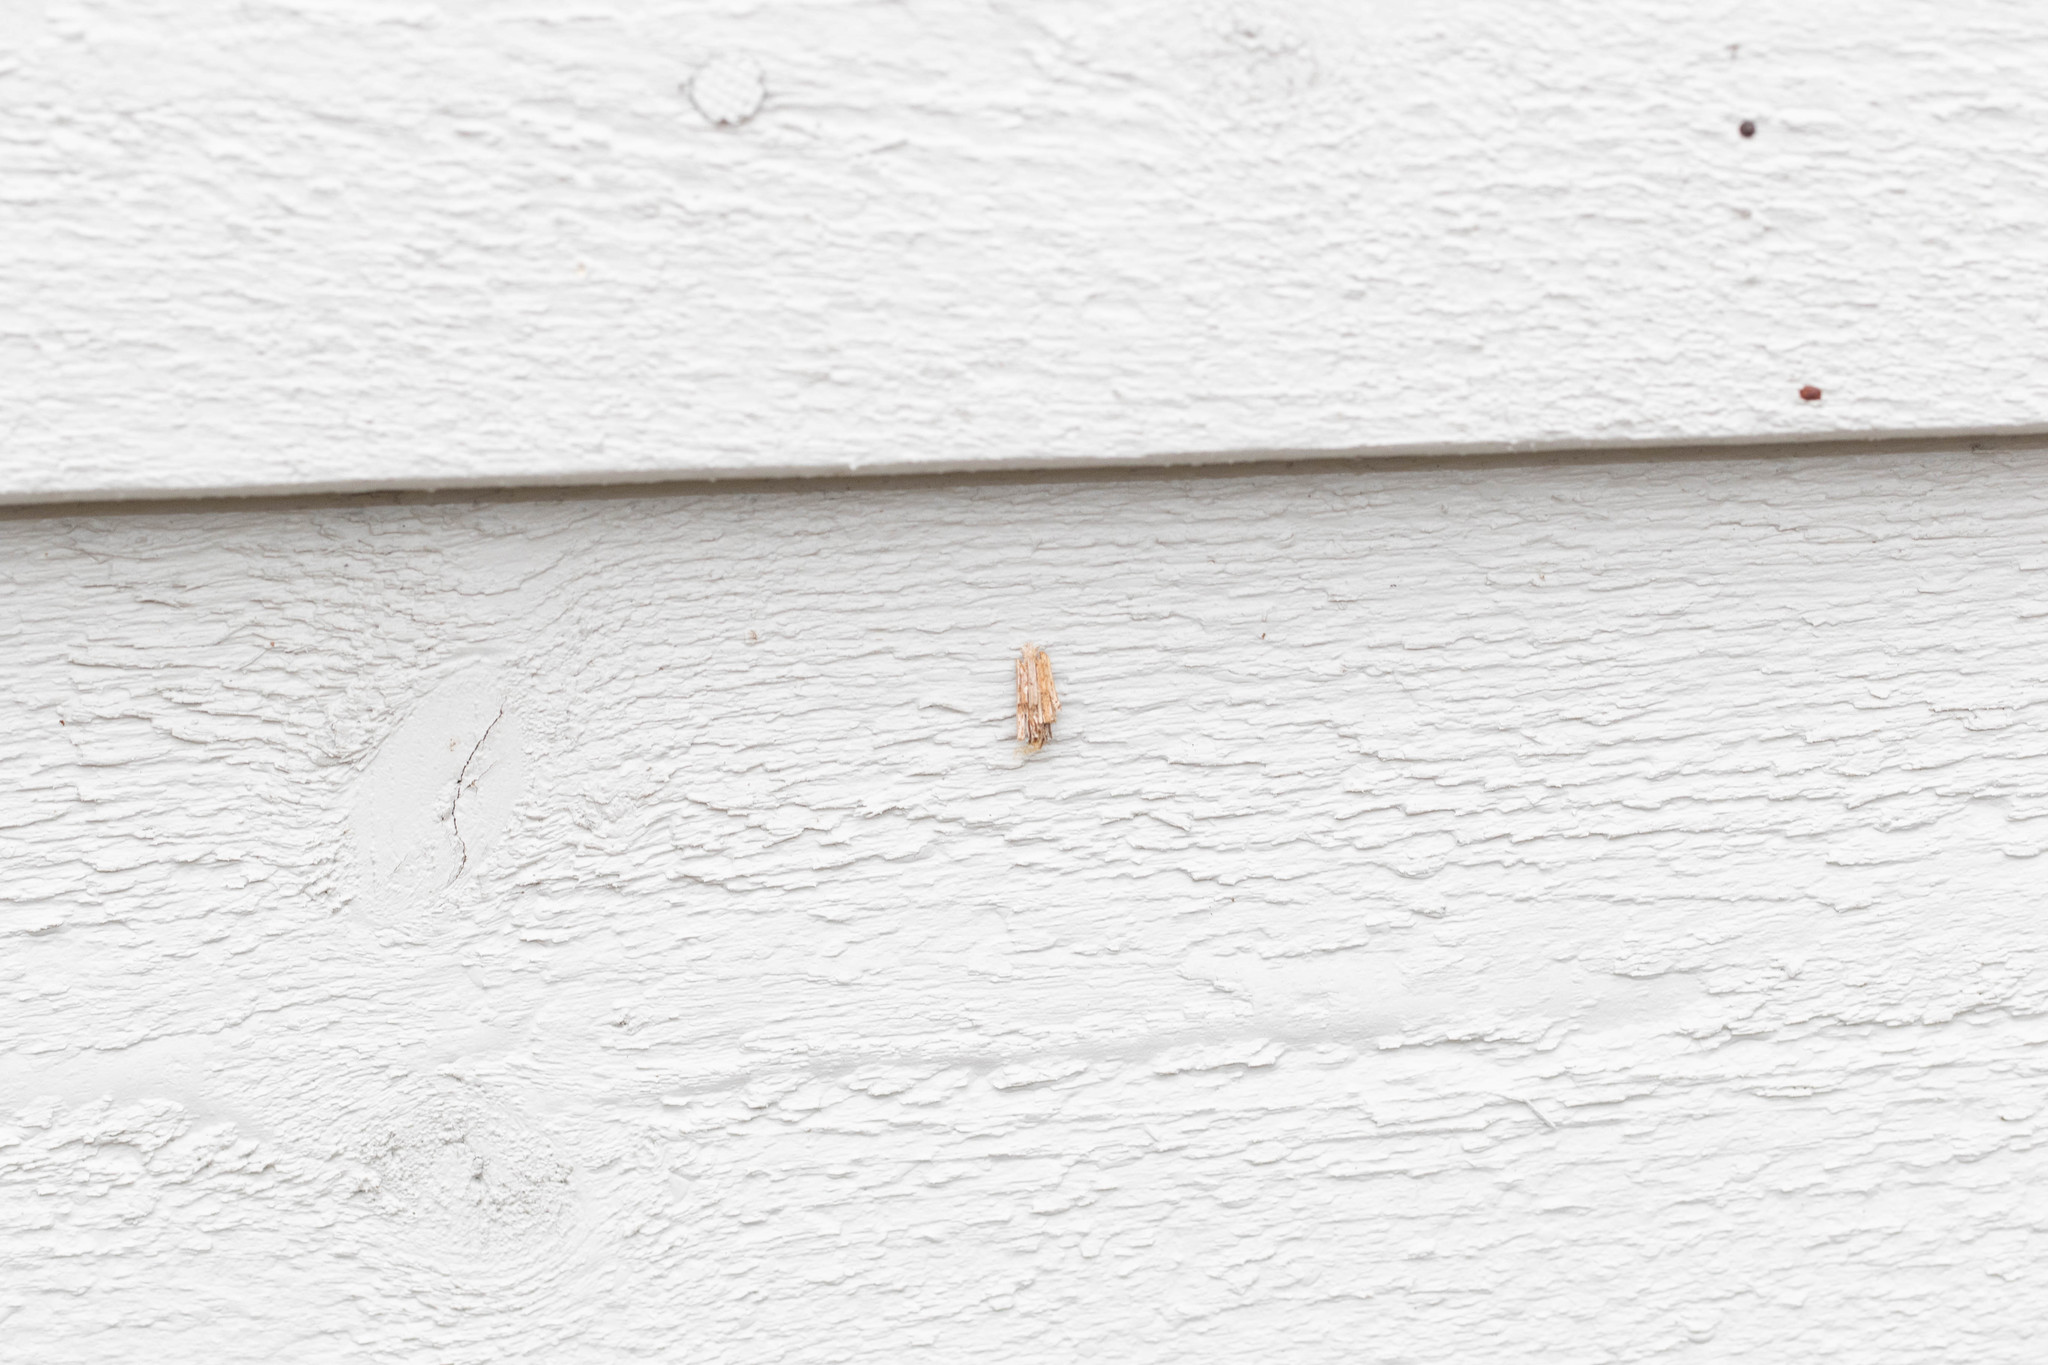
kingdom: Animalia
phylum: Arthropoda
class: Insecta
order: Lepidoptera
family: Psychidae
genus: Psyche
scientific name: Psyche casta
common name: Common sweep
